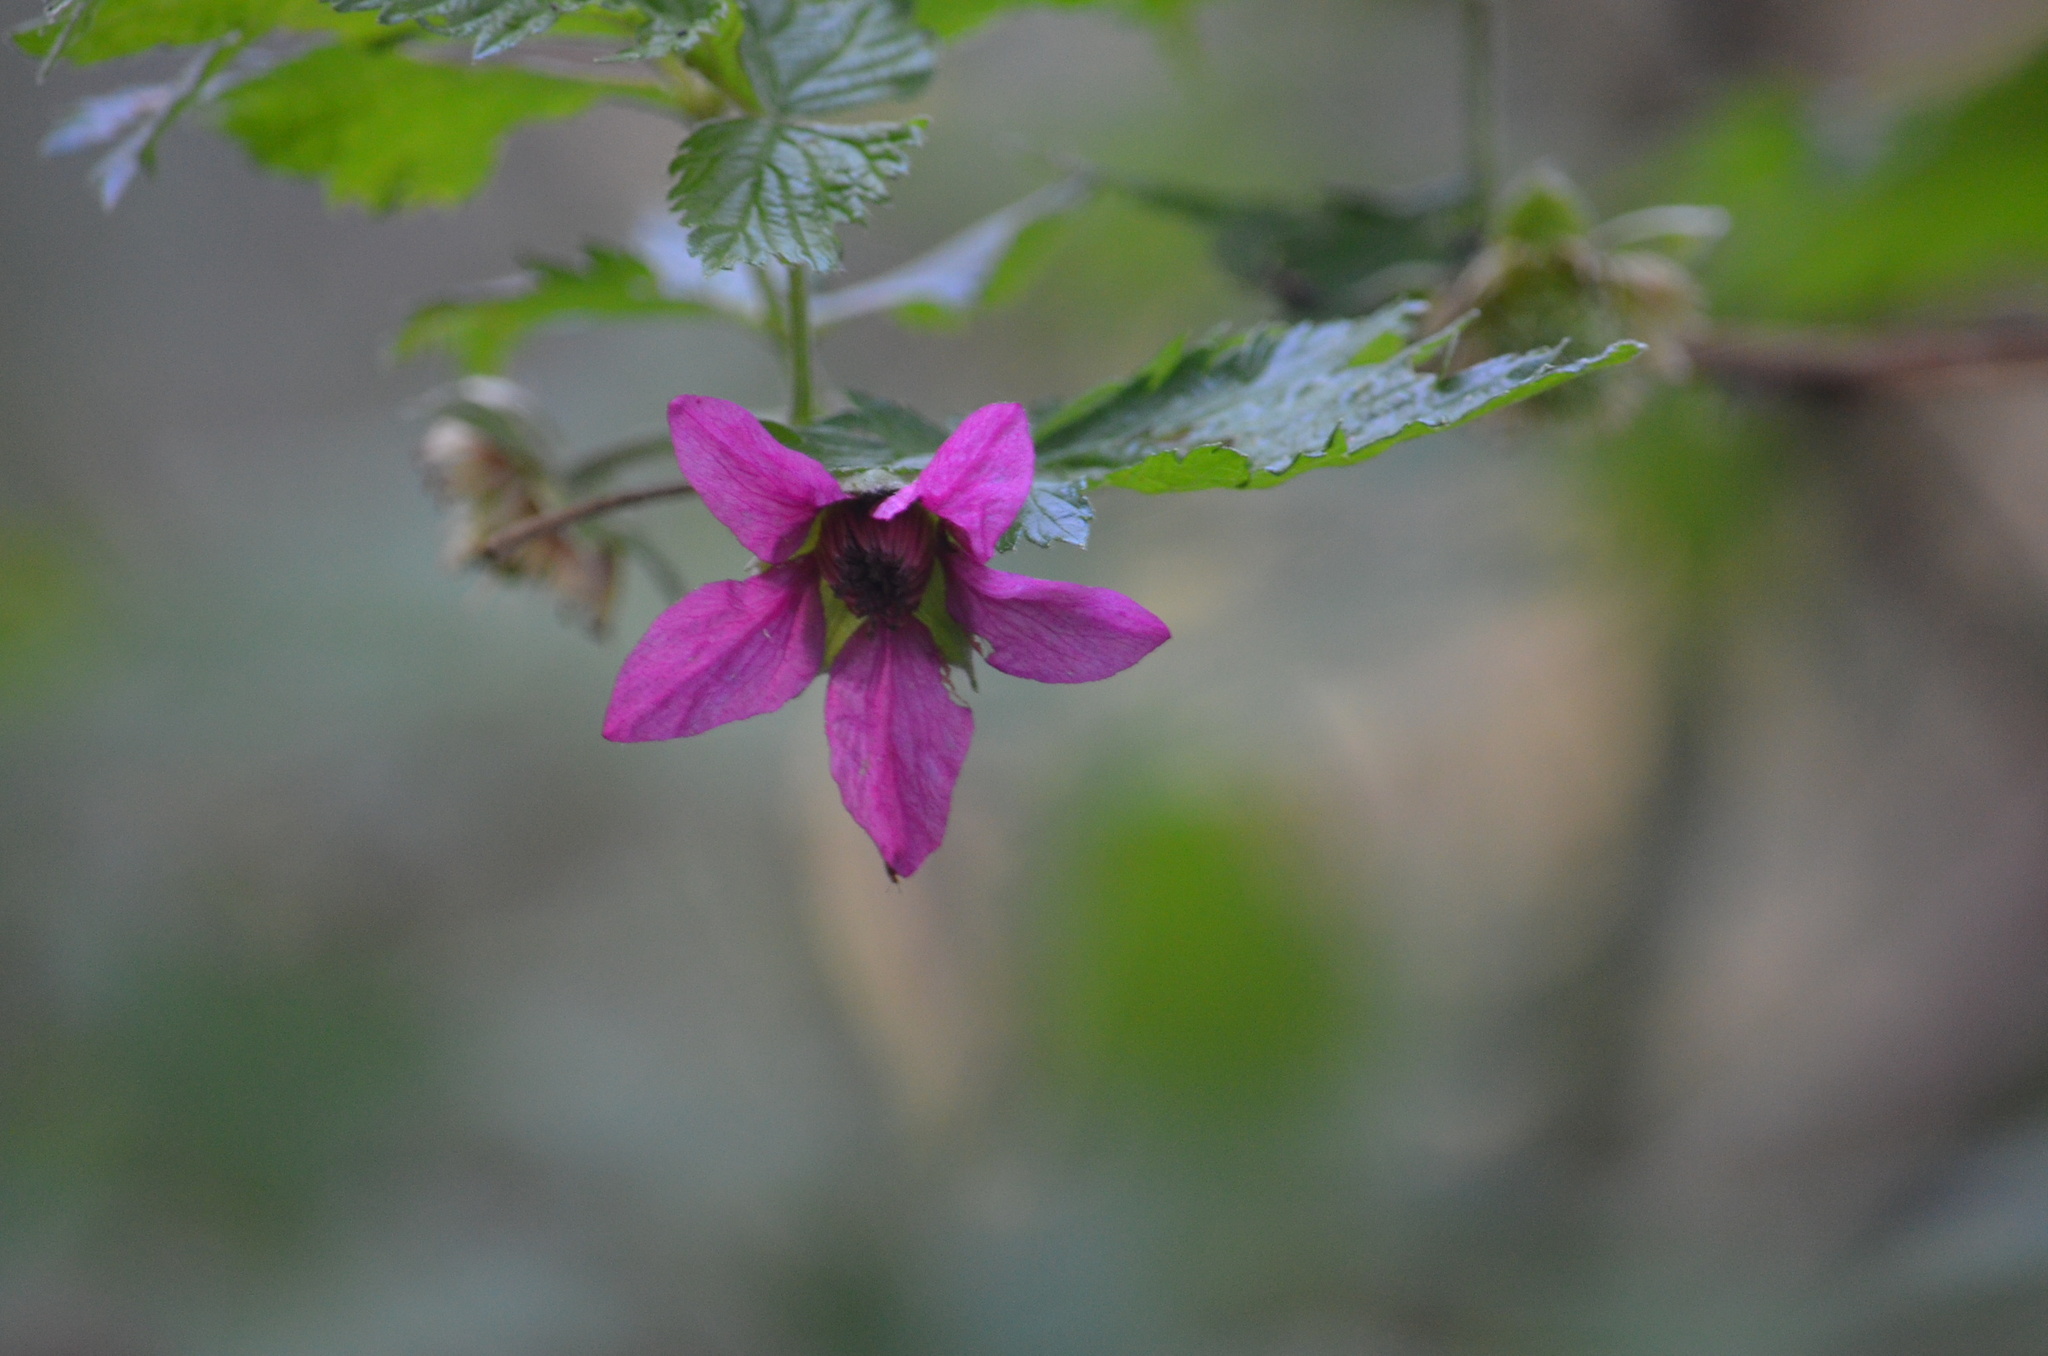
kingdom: Plantae
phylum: Tracheophyta
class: Magnoliopsida
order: Rosales
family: Rosaceae
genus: Rubus
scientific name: Rubus spectabilis
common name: Salmonberry
